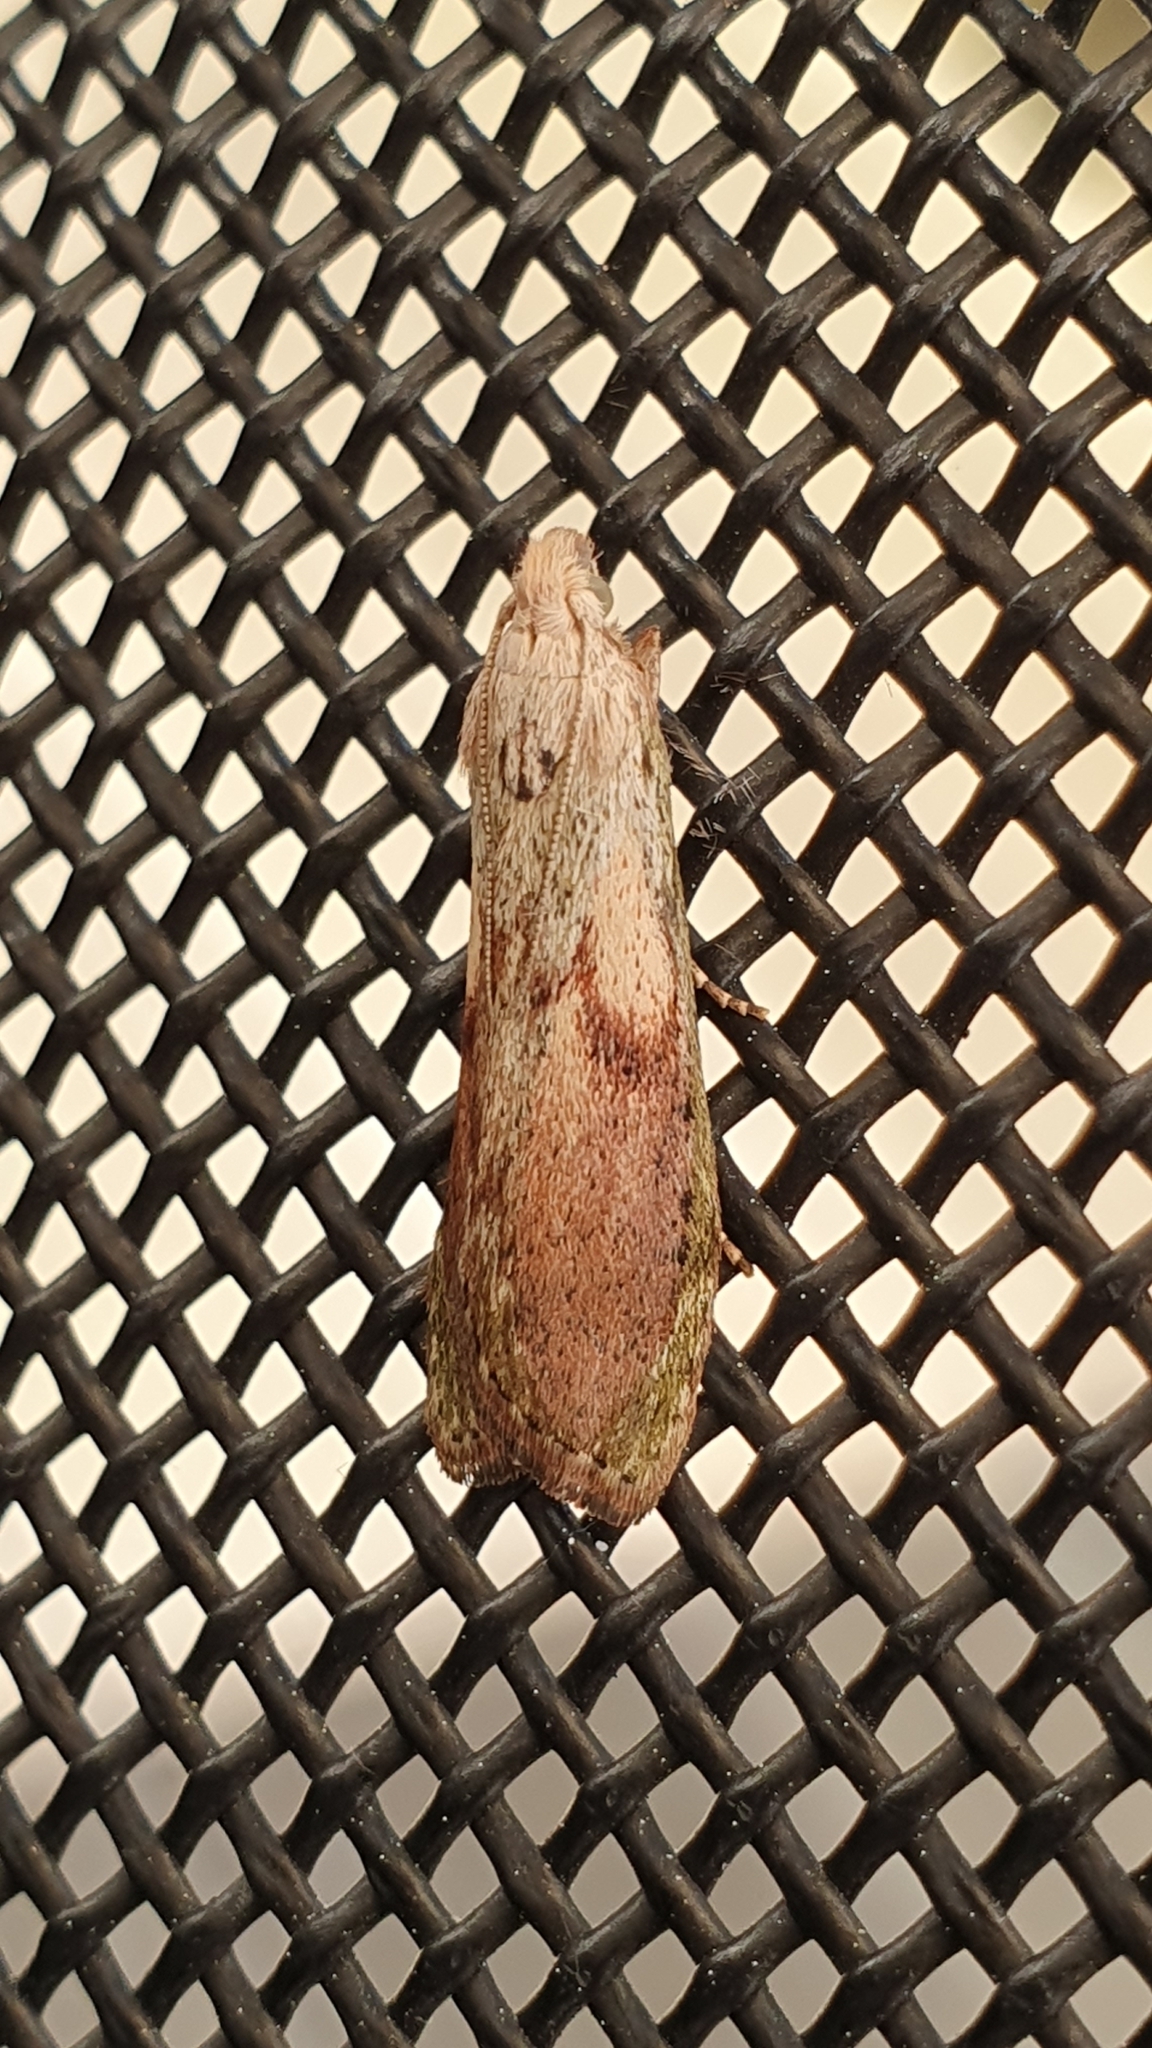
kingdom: Animalia
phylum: Arthropoda
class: Insecta
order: Lepidoptera
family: Pyralidae
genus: Aphomia
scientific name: Aphomia sociella
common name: Bee moth
